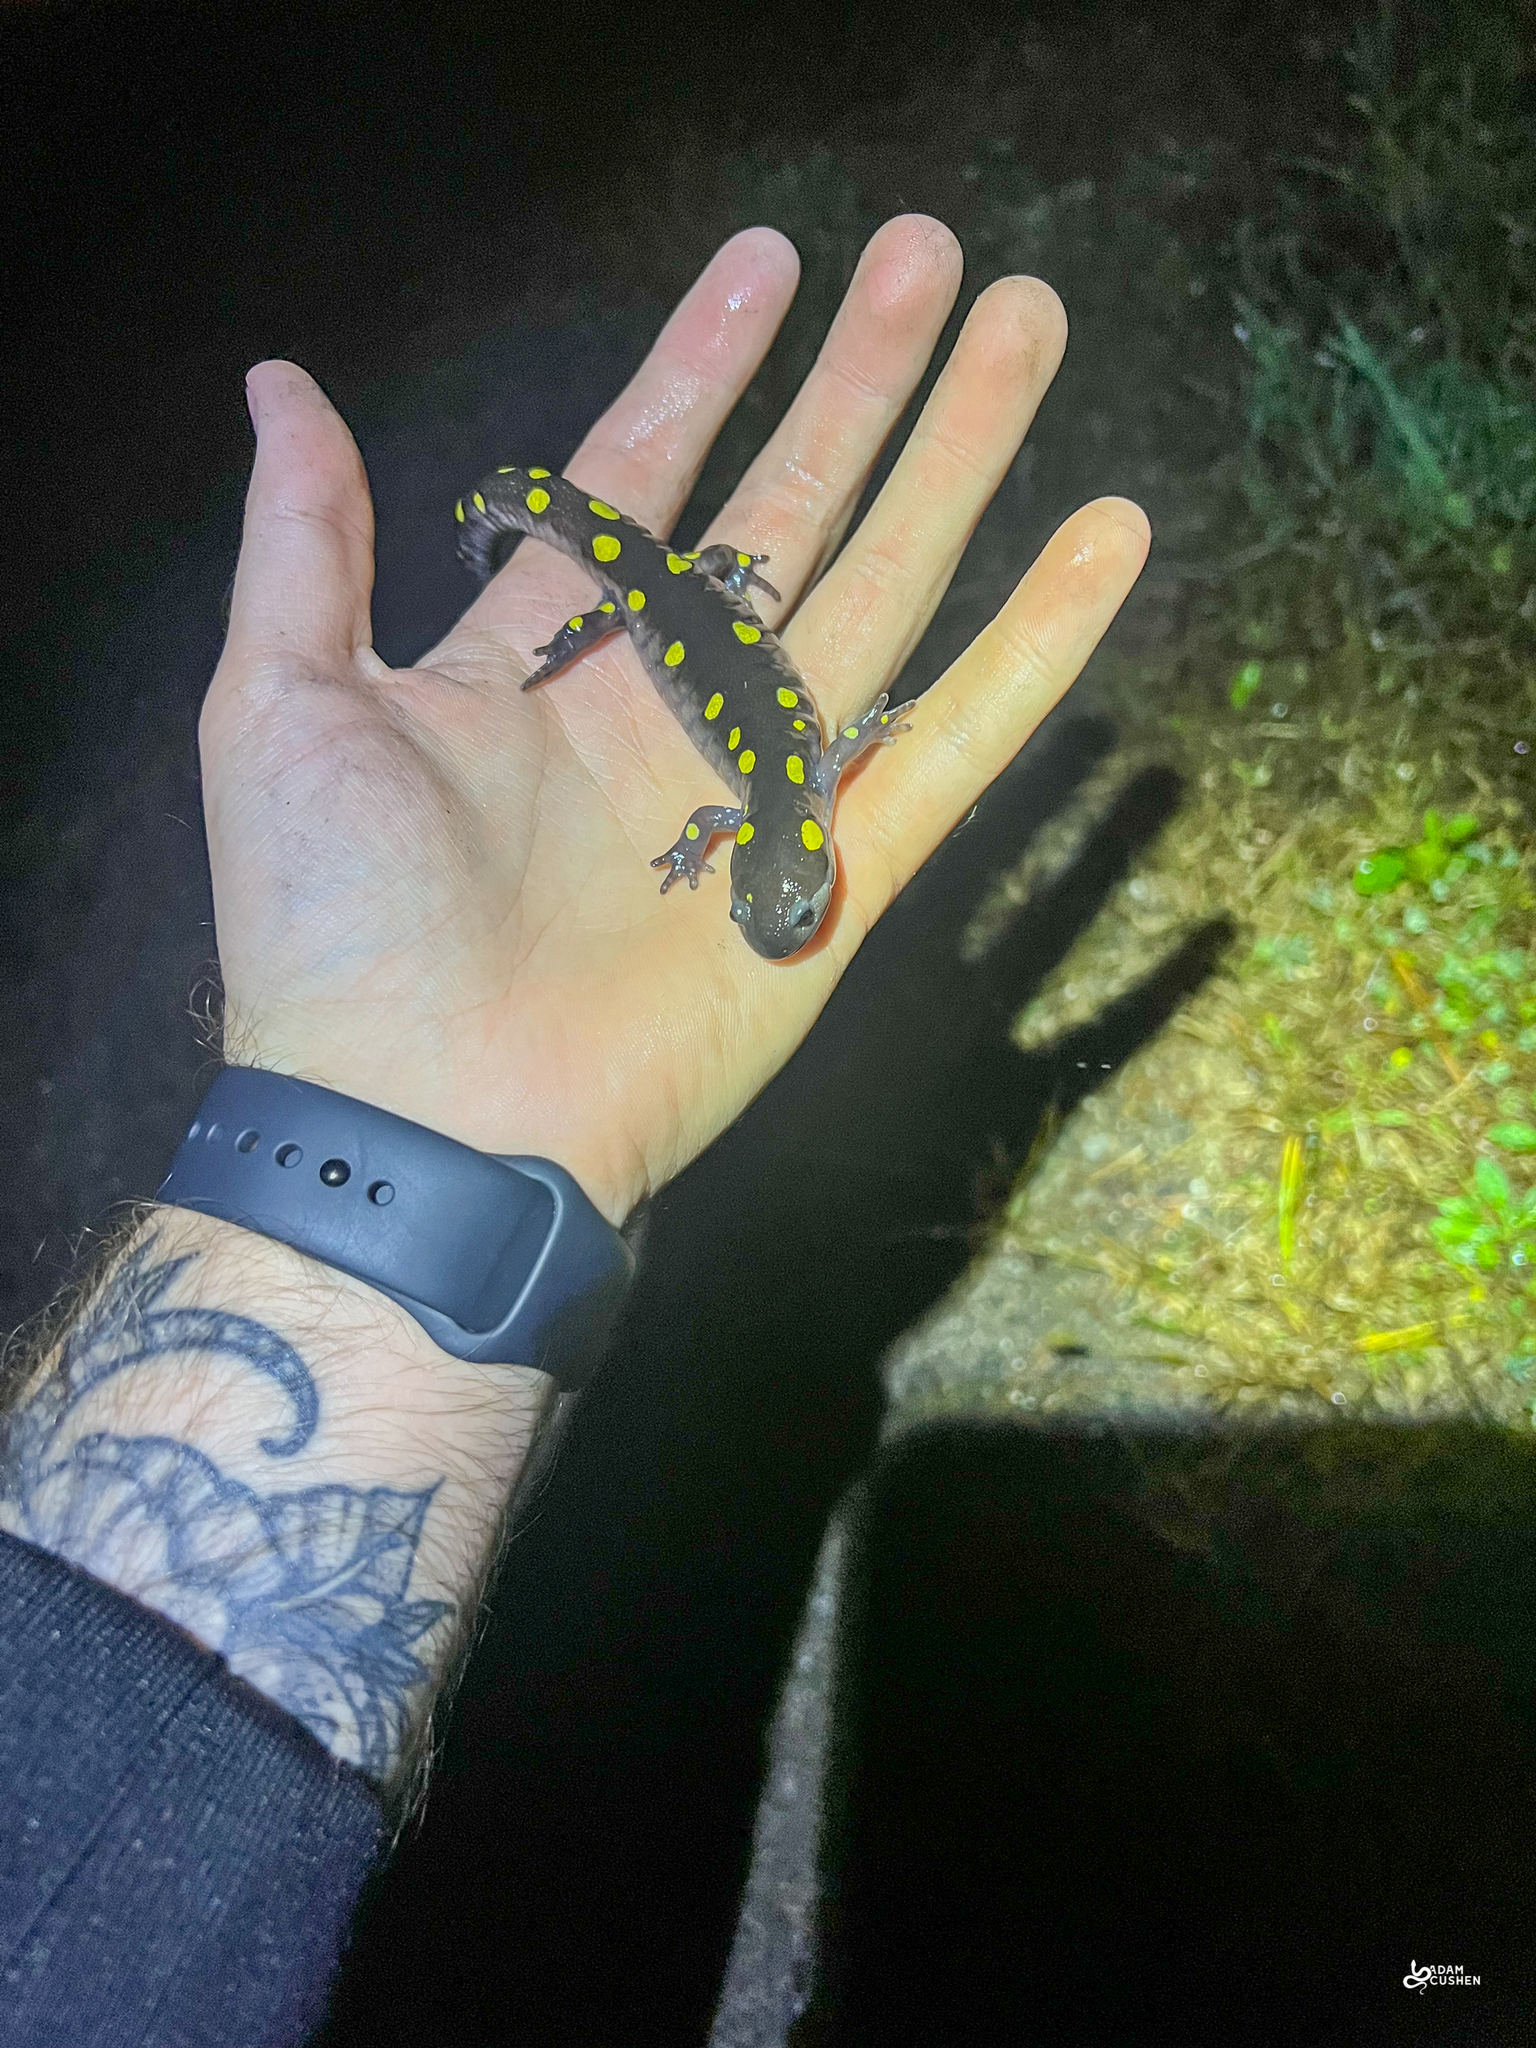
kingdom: Animalia
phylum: Chordata
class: Amphibia
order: Caudata
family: Ambystomatidae
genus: Ambystoma
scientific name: Ambystoma maculatum
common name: Spotted salamander
